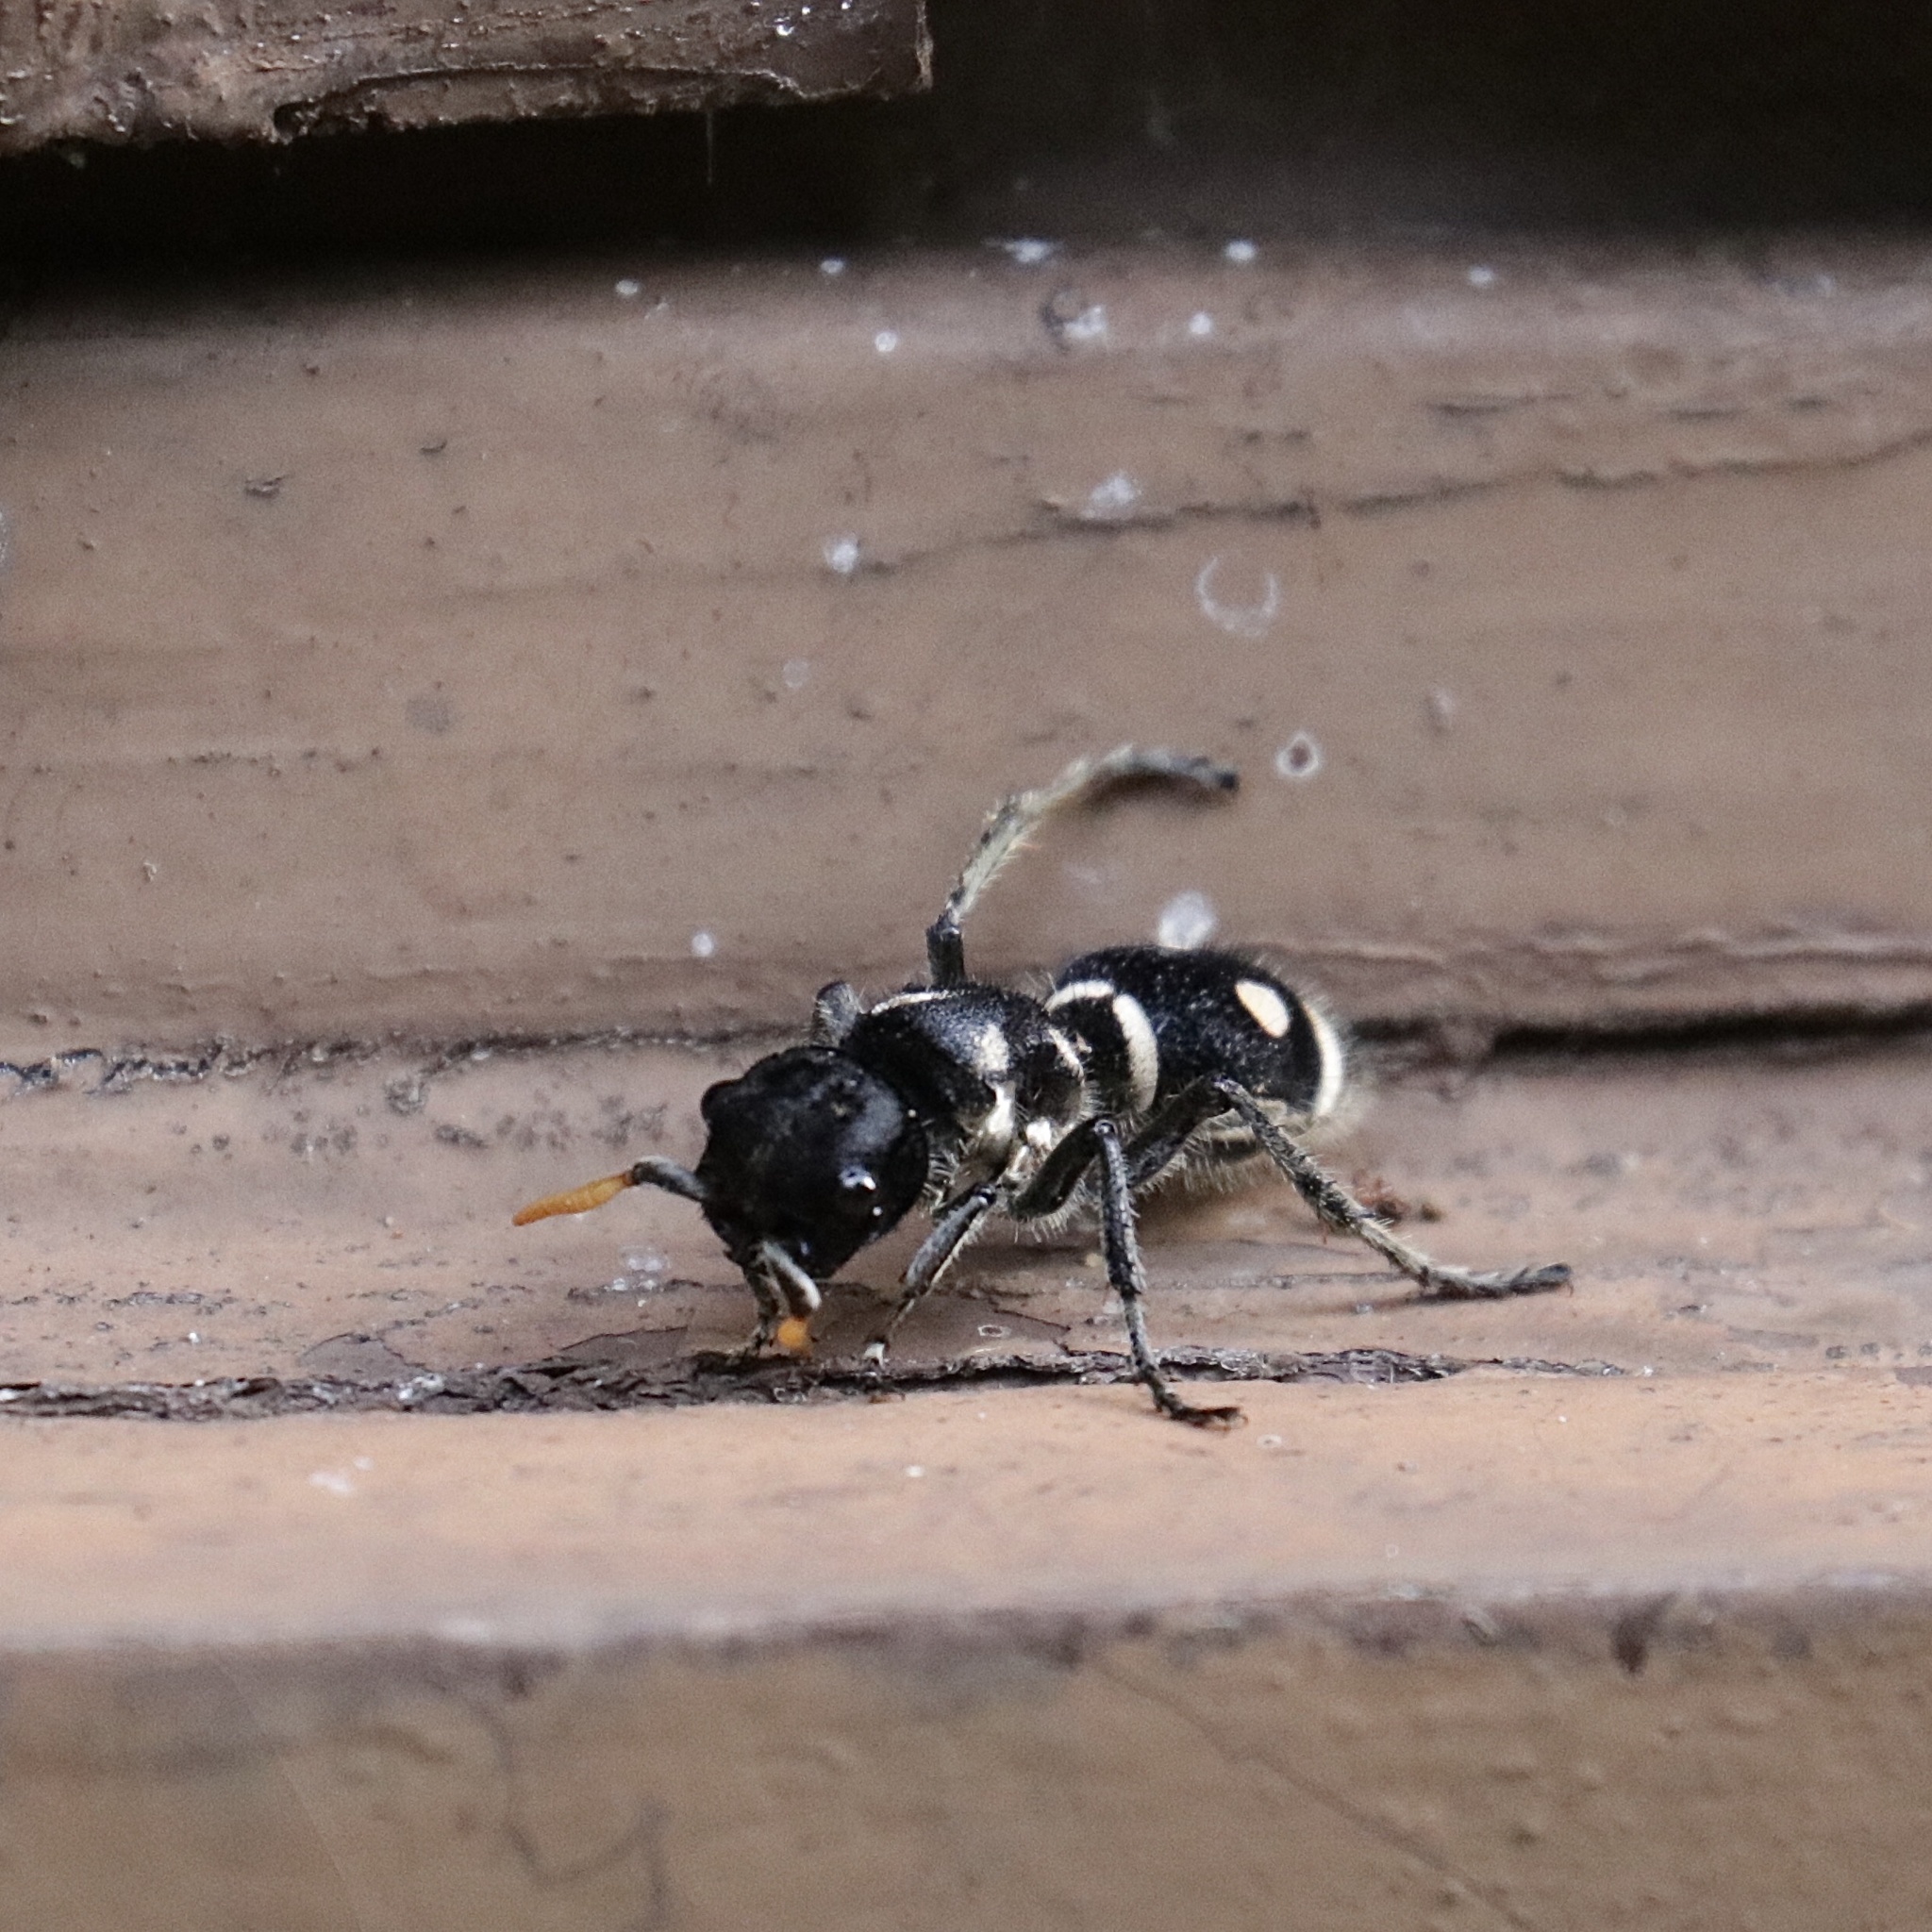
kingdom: Animalia
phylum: Arthropoda
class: Insecta
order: Hymenoptera
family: Mutillidae
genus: Hoplomutilla
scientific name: Hoplomutilla
